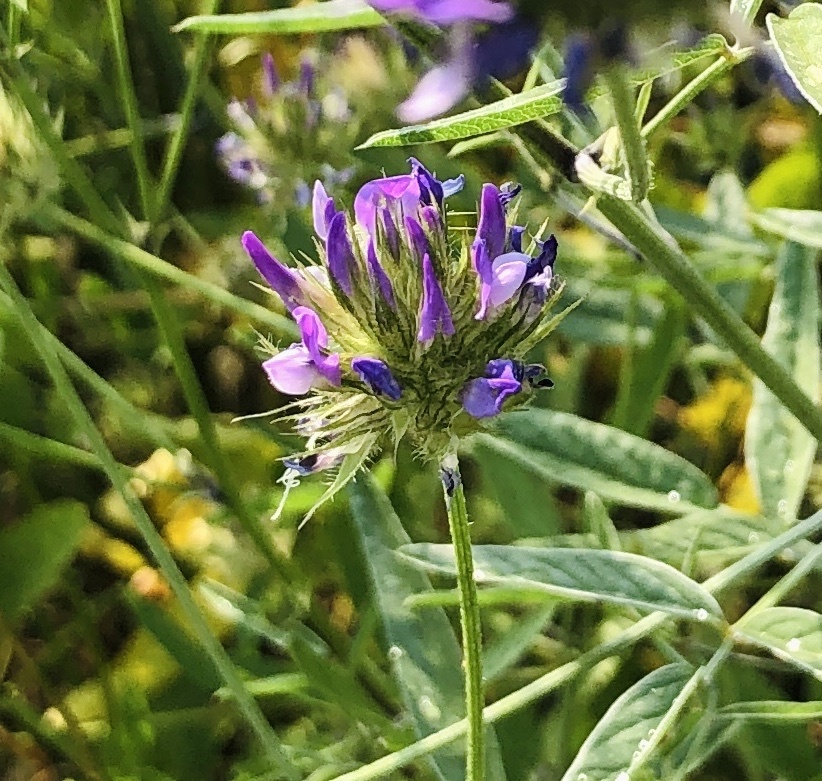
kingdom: Plantae
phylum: Tracheophyta
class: Magnoliopsida
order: Fabales
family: Fabaceae
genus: Bituminaria
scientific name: Bituminaria bituminosa
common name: Arabian pea
